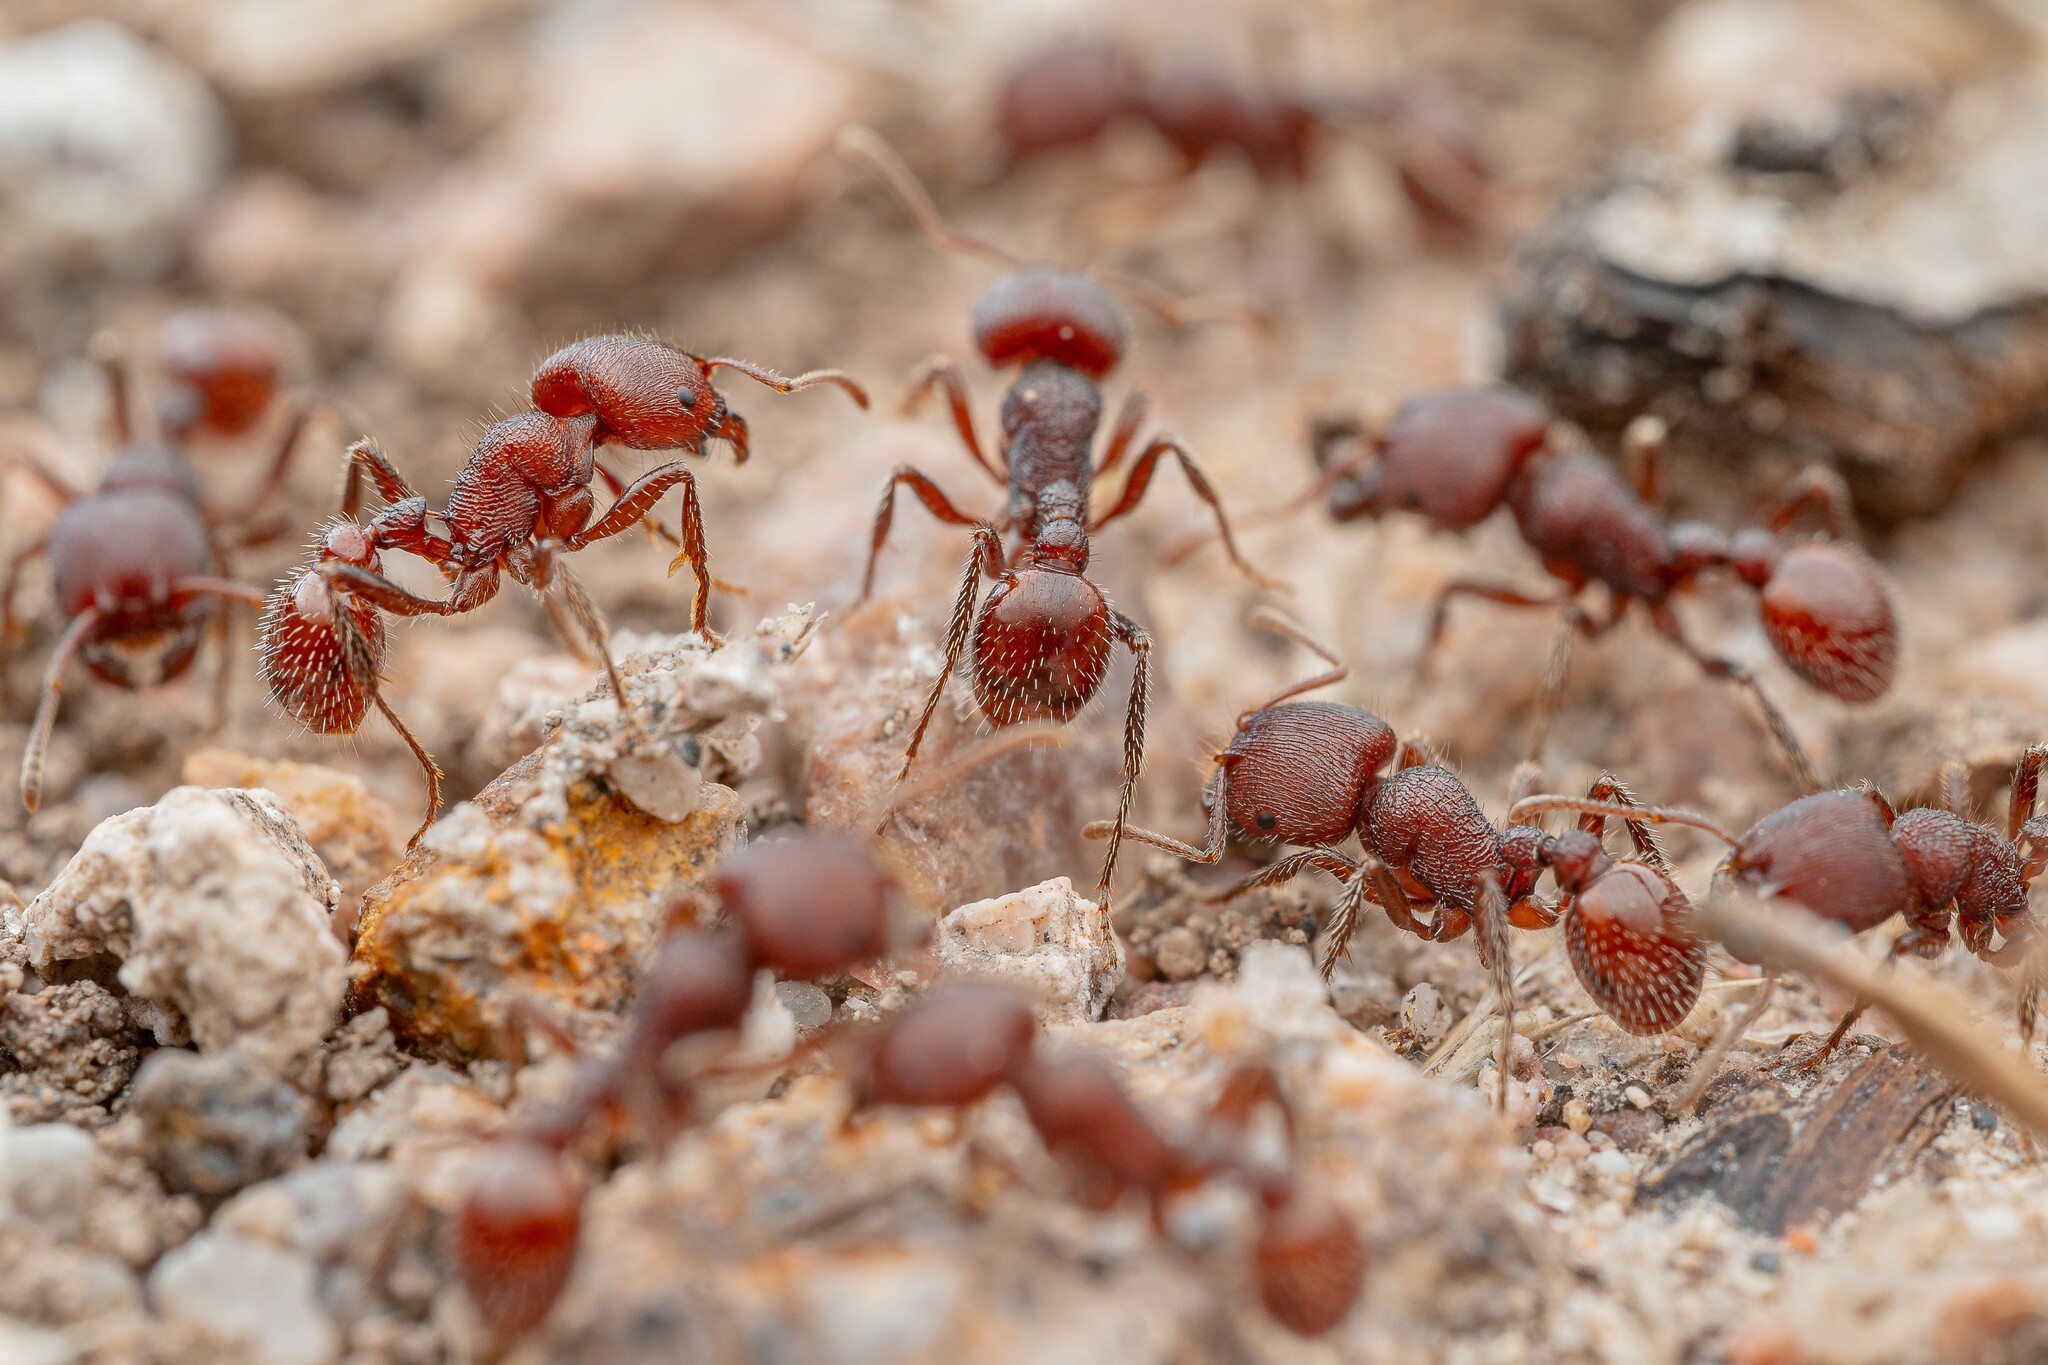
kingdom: Animalia
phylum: Arthropoda
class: Insecta
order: Hymenoptera
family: Formicidae
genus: Pogonomyrmex
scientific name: Pogonomyrmex huachucanus
